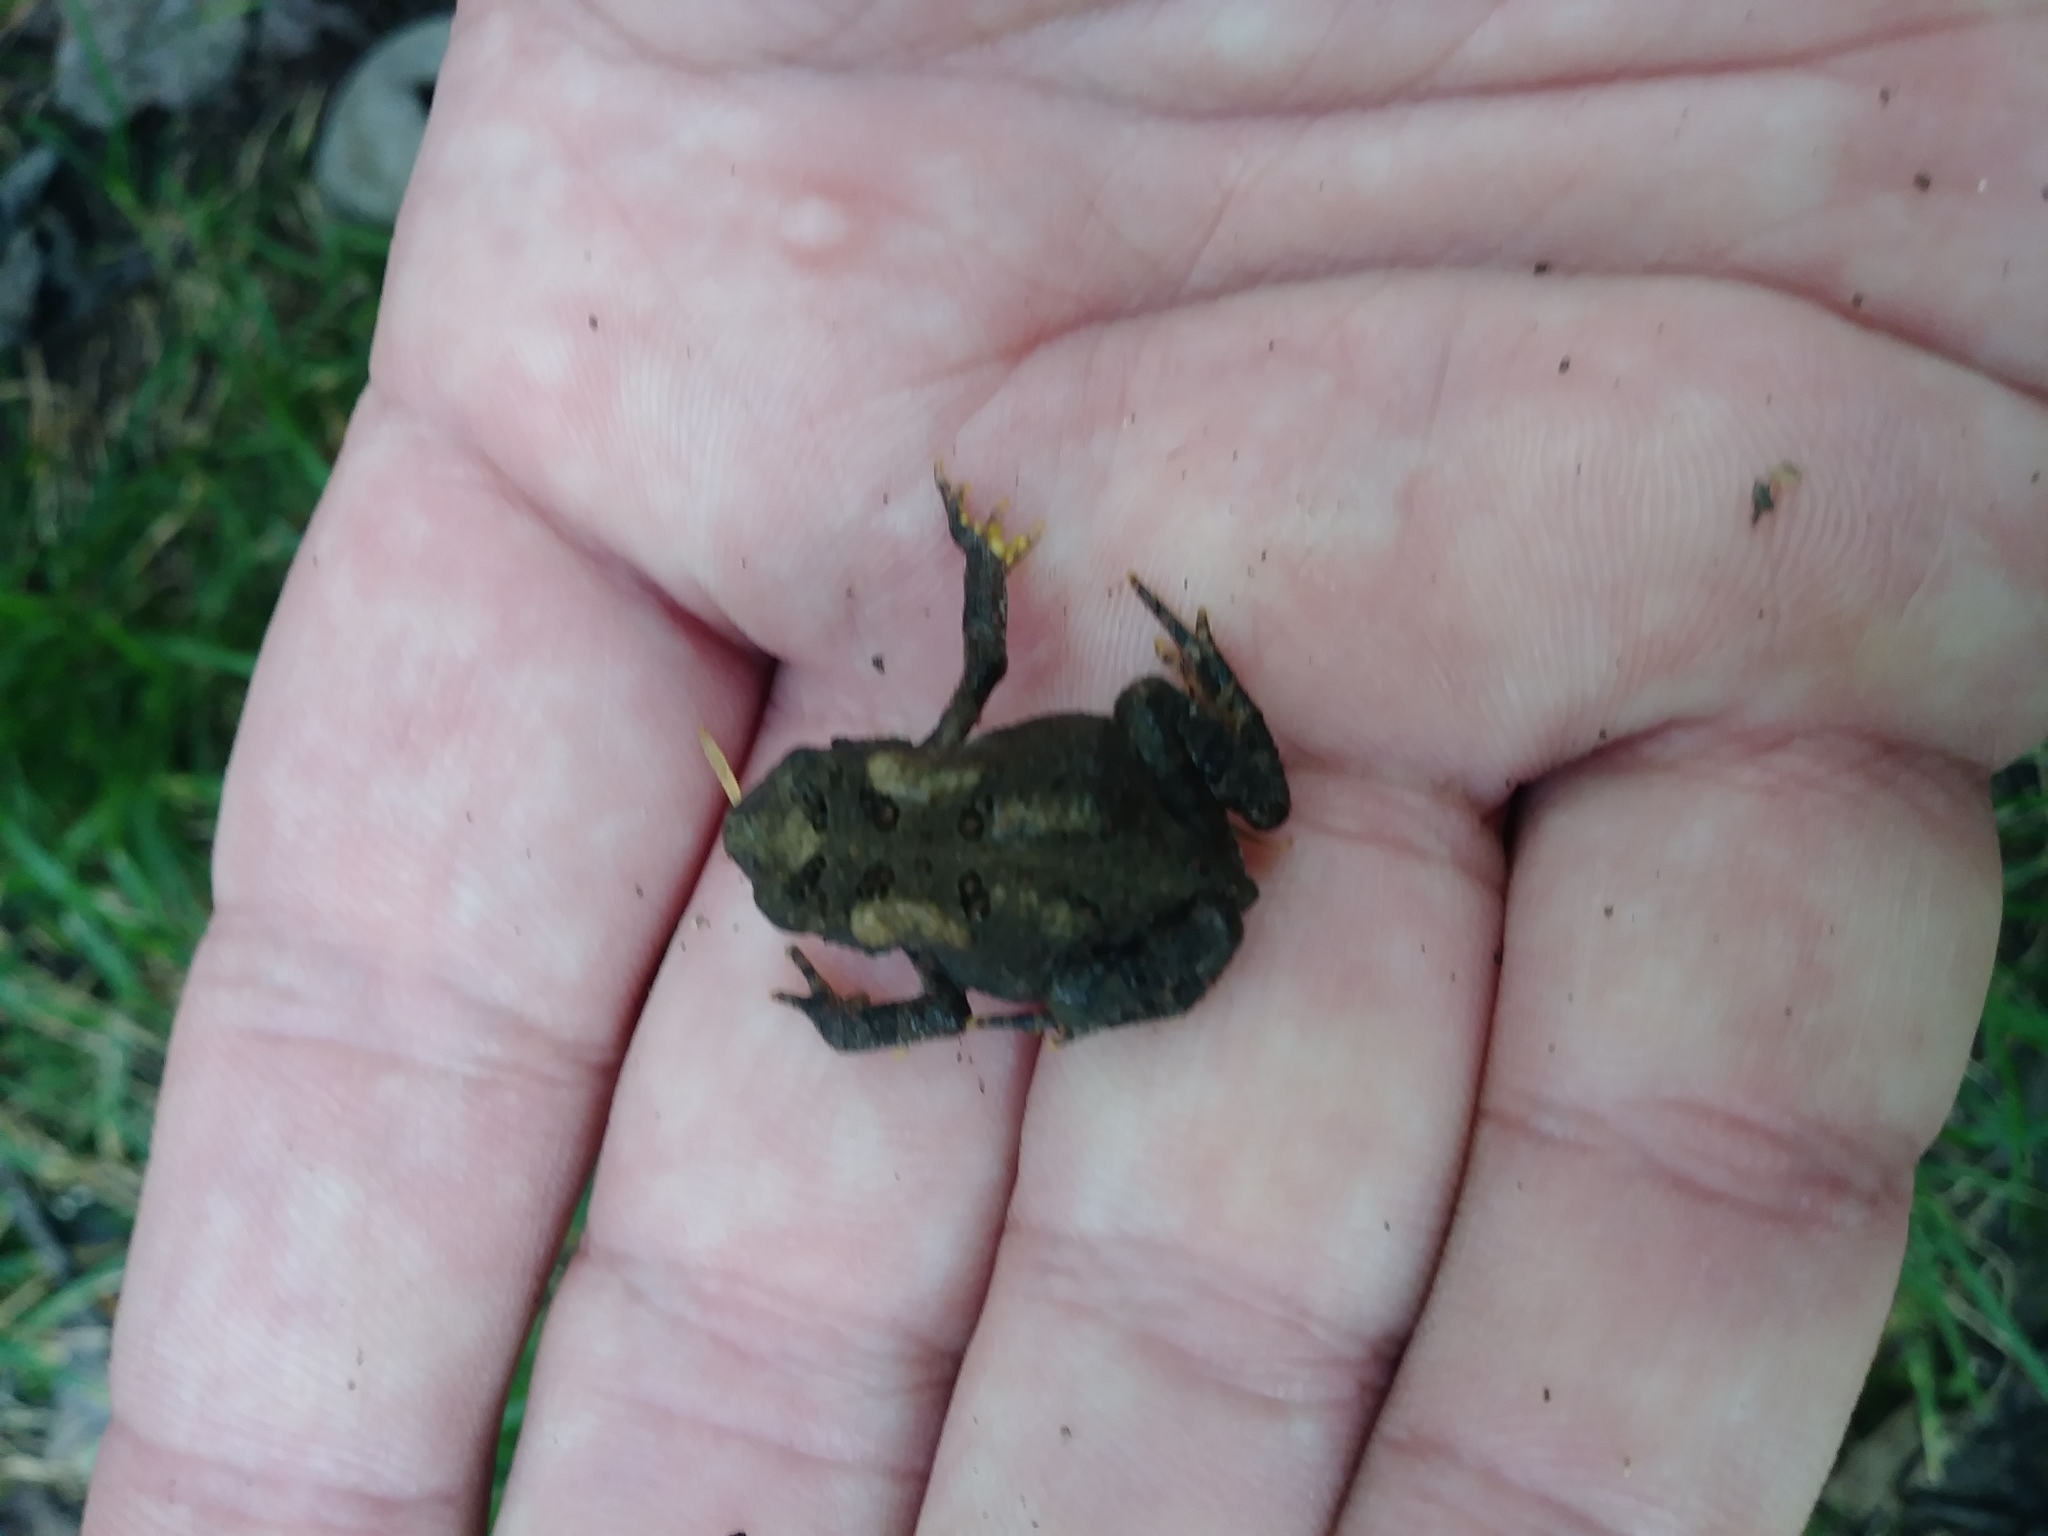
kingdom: Animalia
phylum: Chordata
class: Amphibia
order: Anura
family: Bufonidae
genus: Anaxyrus
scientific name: Anaxyrus americanus
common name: American toad
